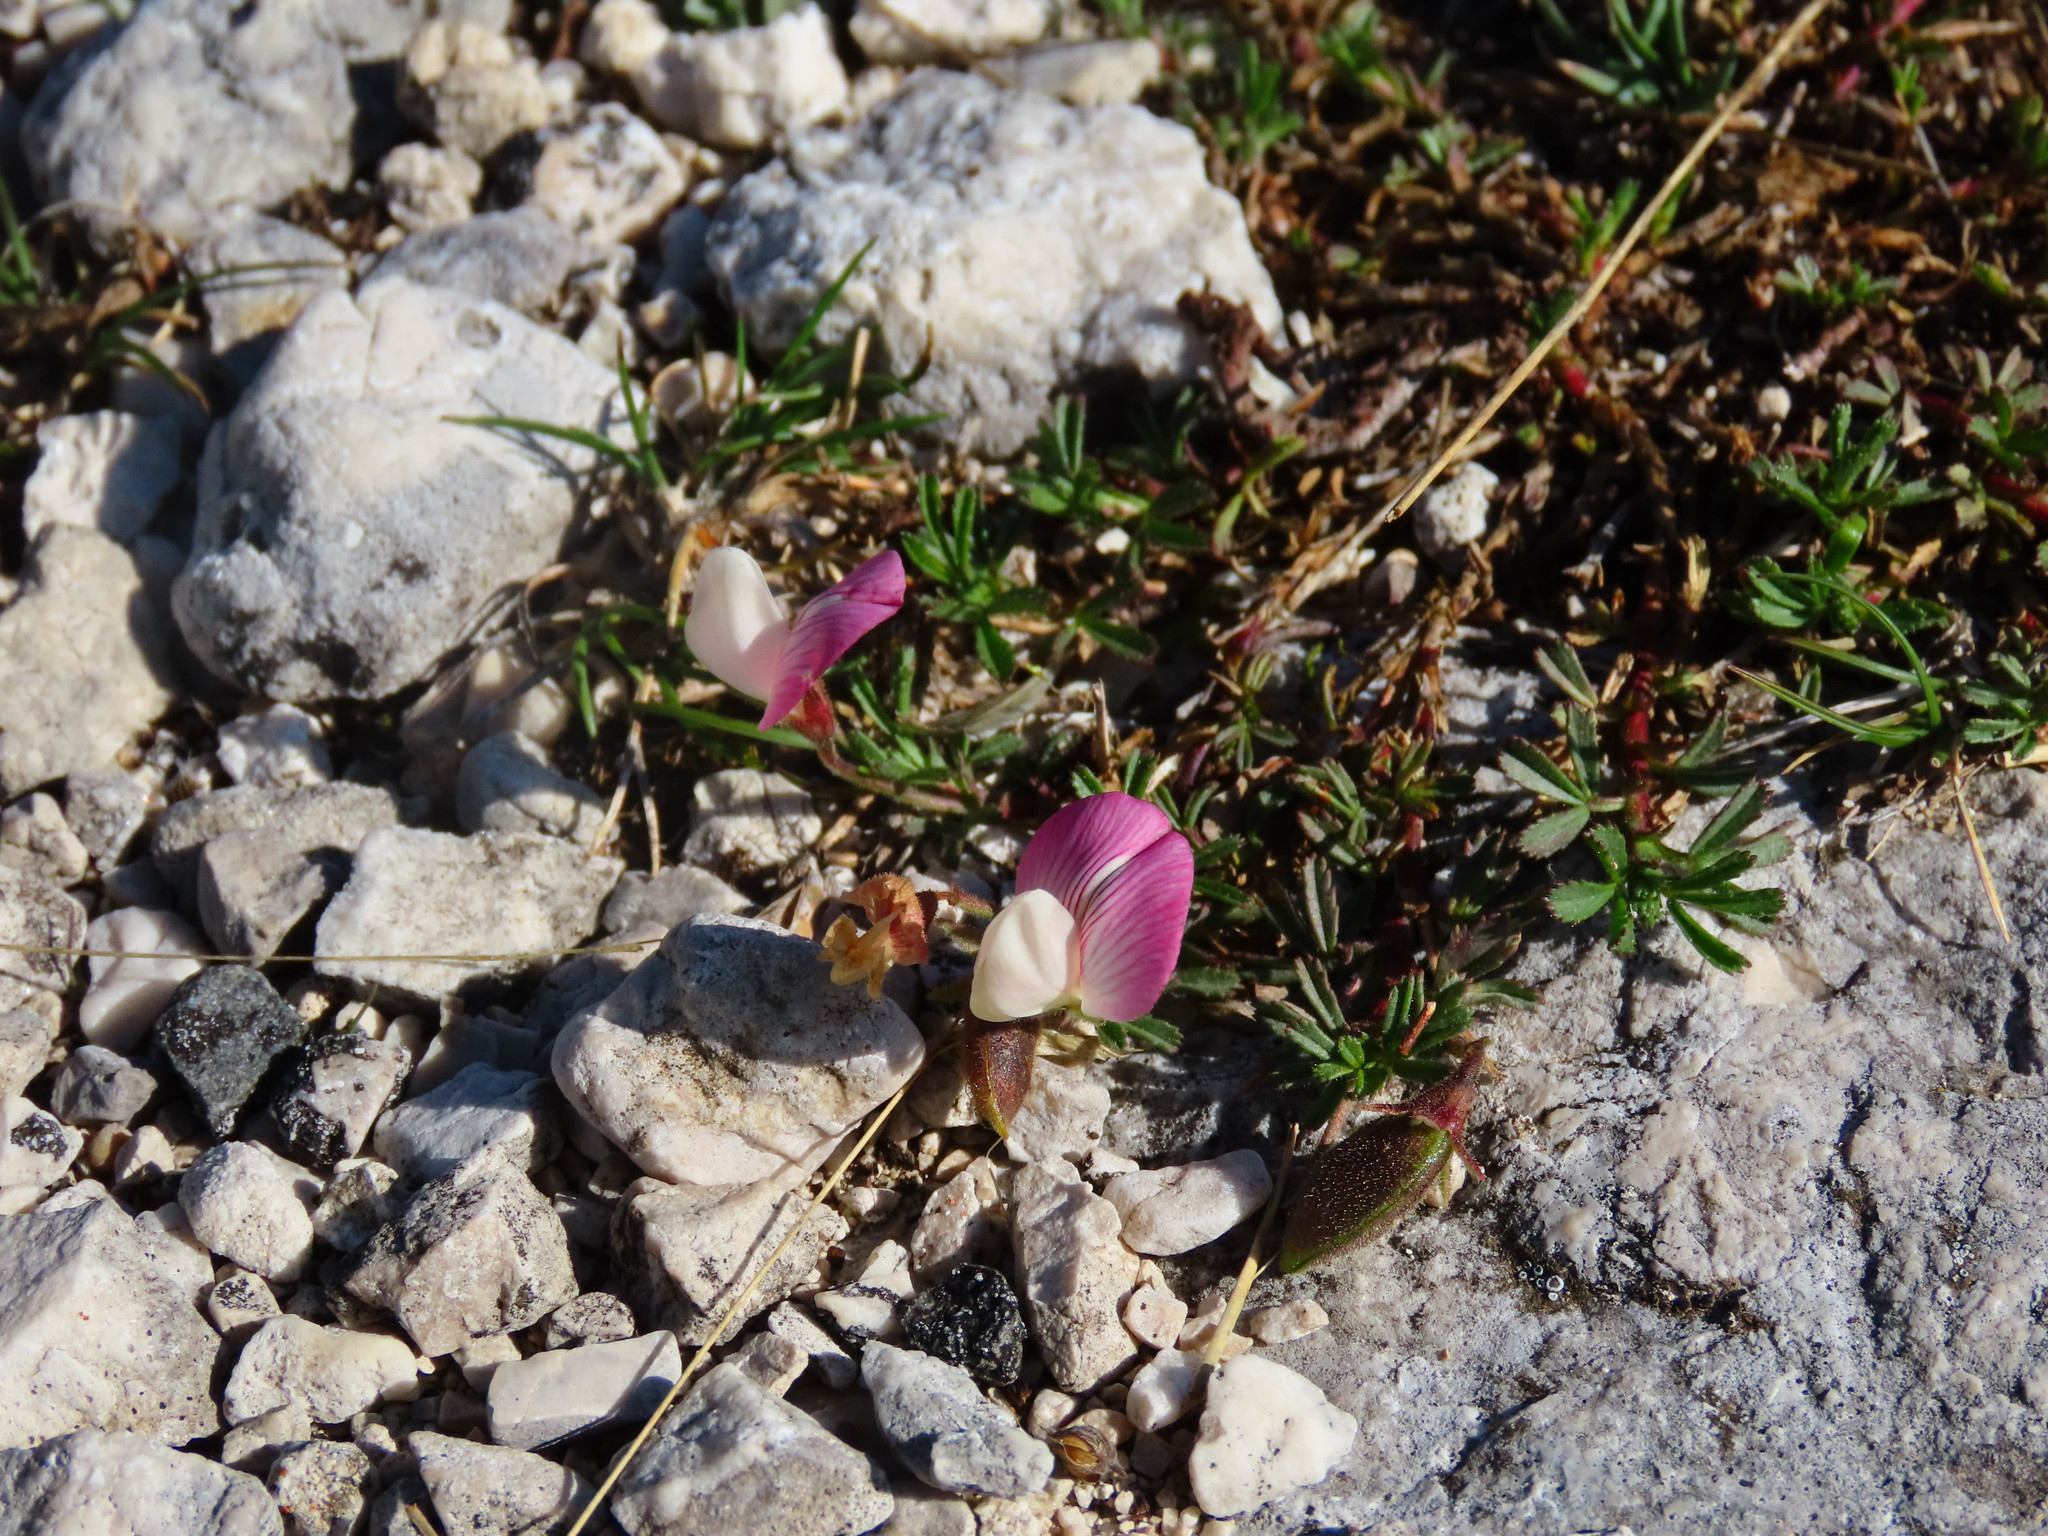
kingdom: Plantae
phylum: Tracheophyta
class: Magnoliopsida
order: Fabales
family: Fabaceae
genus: Ononis
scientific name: Ononis cristata
